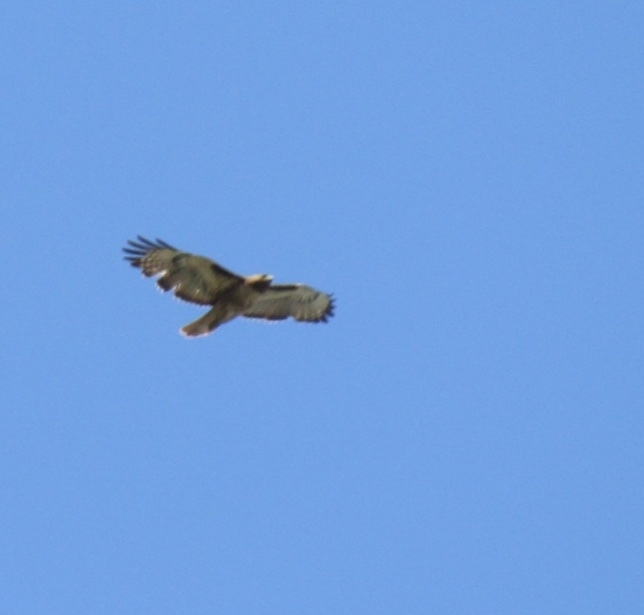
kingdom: Animalia
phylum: Chordata
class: Aves
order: Accipitriformes
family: Accipitridae
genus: Buteo
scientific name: Buteo jamaicensis
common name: Red-tailed hawk
